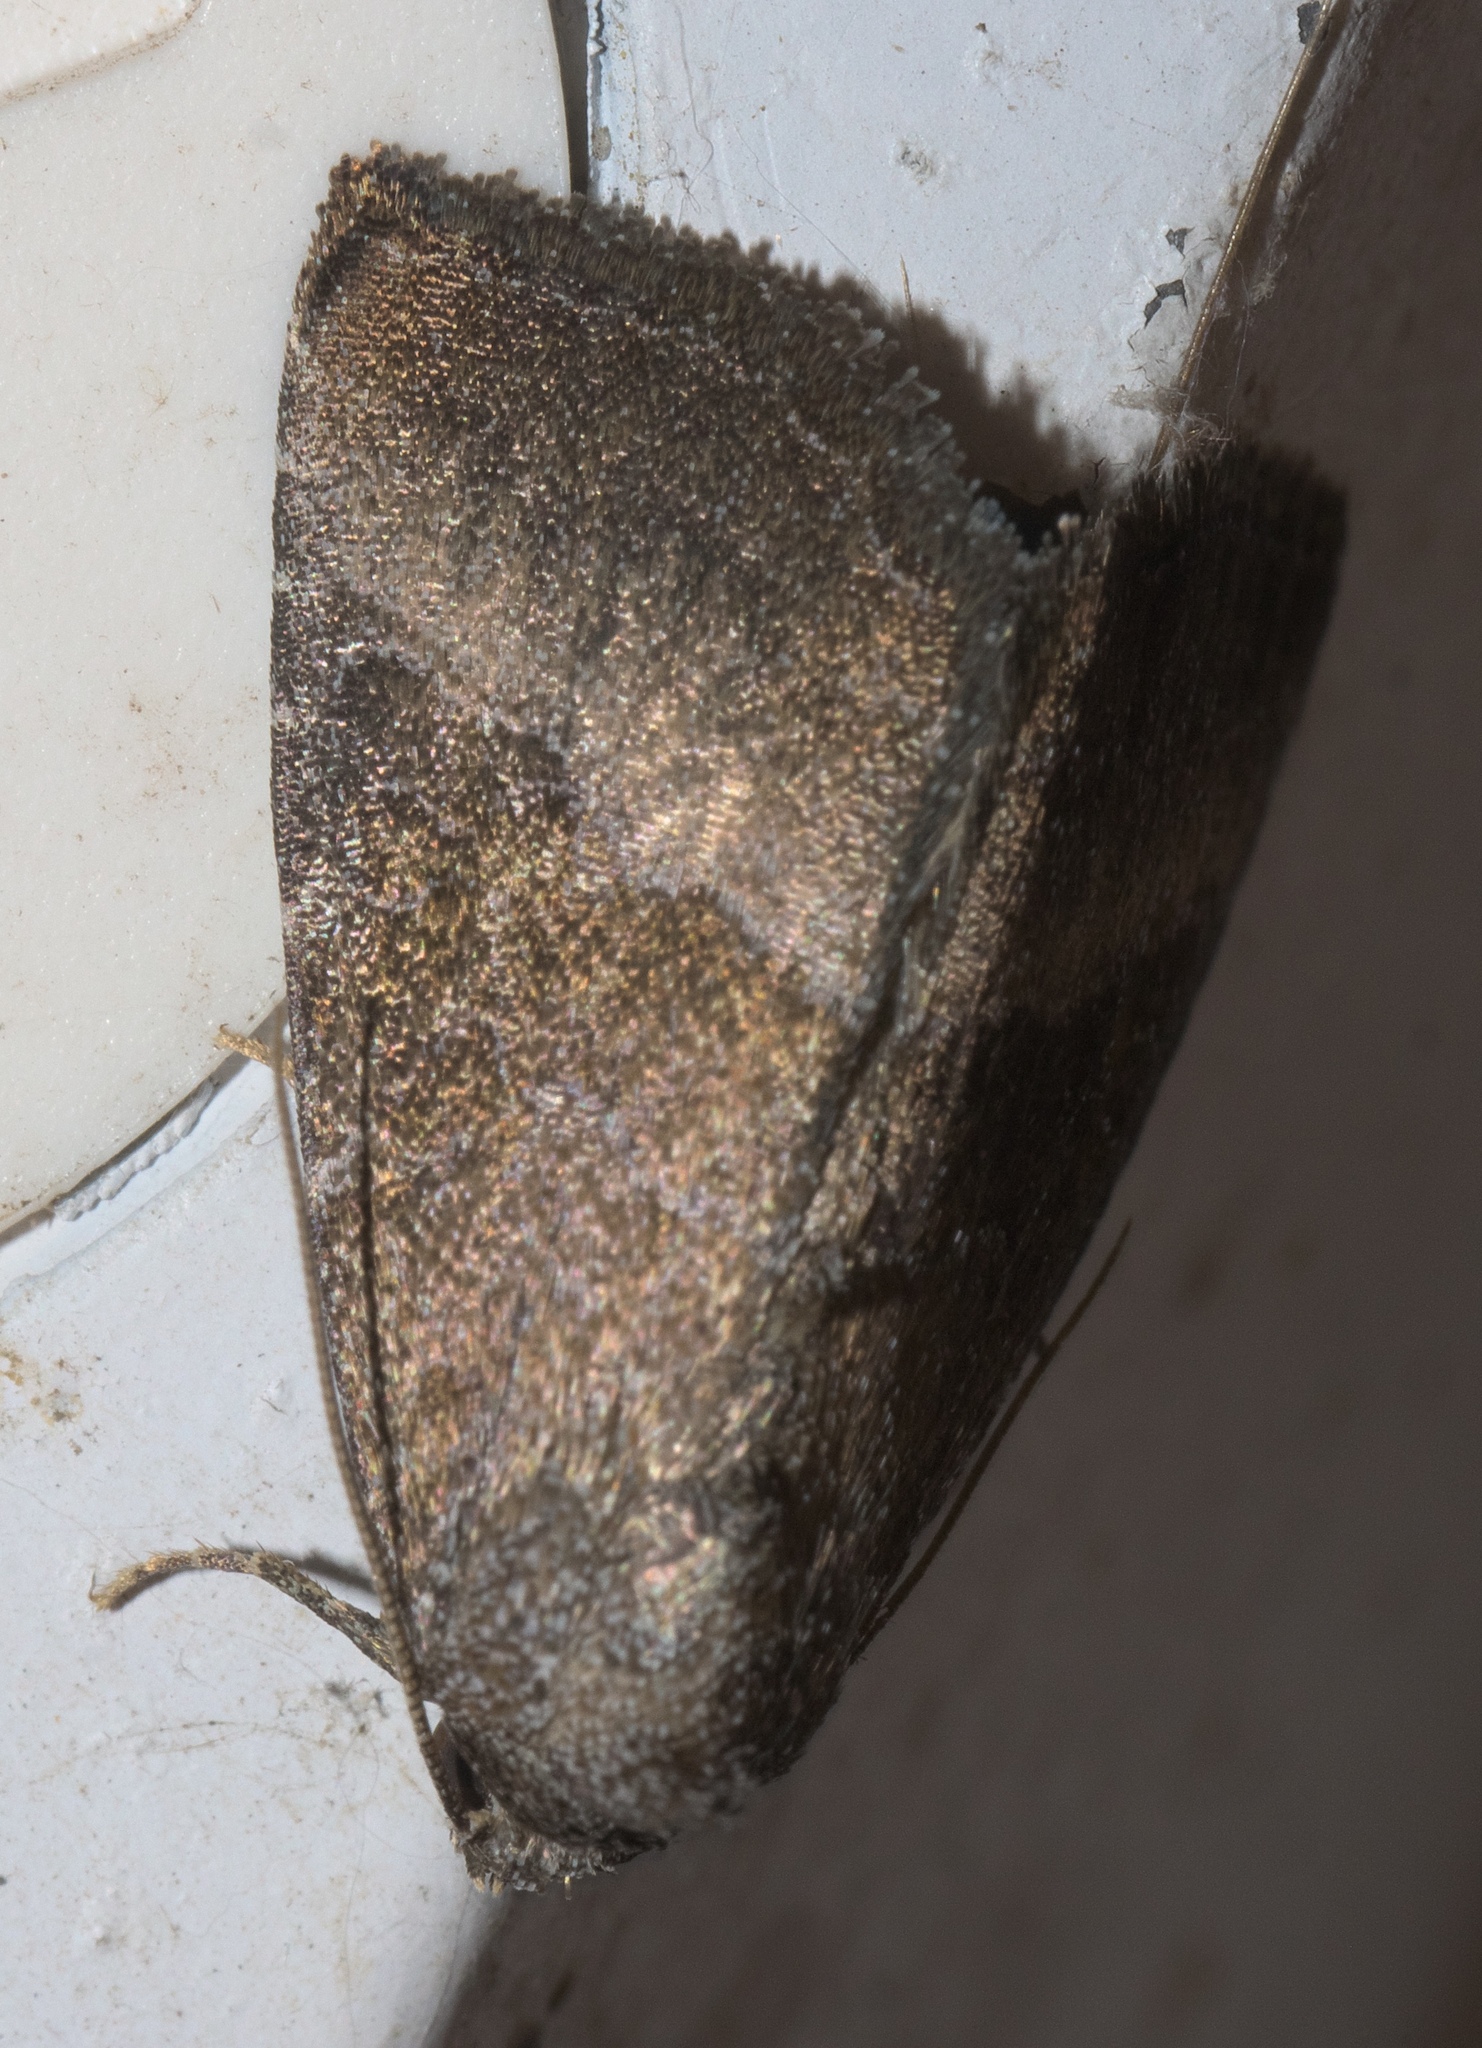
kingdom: Animalia
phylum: Arthropoda
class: Insecta
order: Lepidoptera
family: Noctuidae
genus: Ogdoconta
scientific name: Ogdoconta cinereola
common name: Common pinkband
